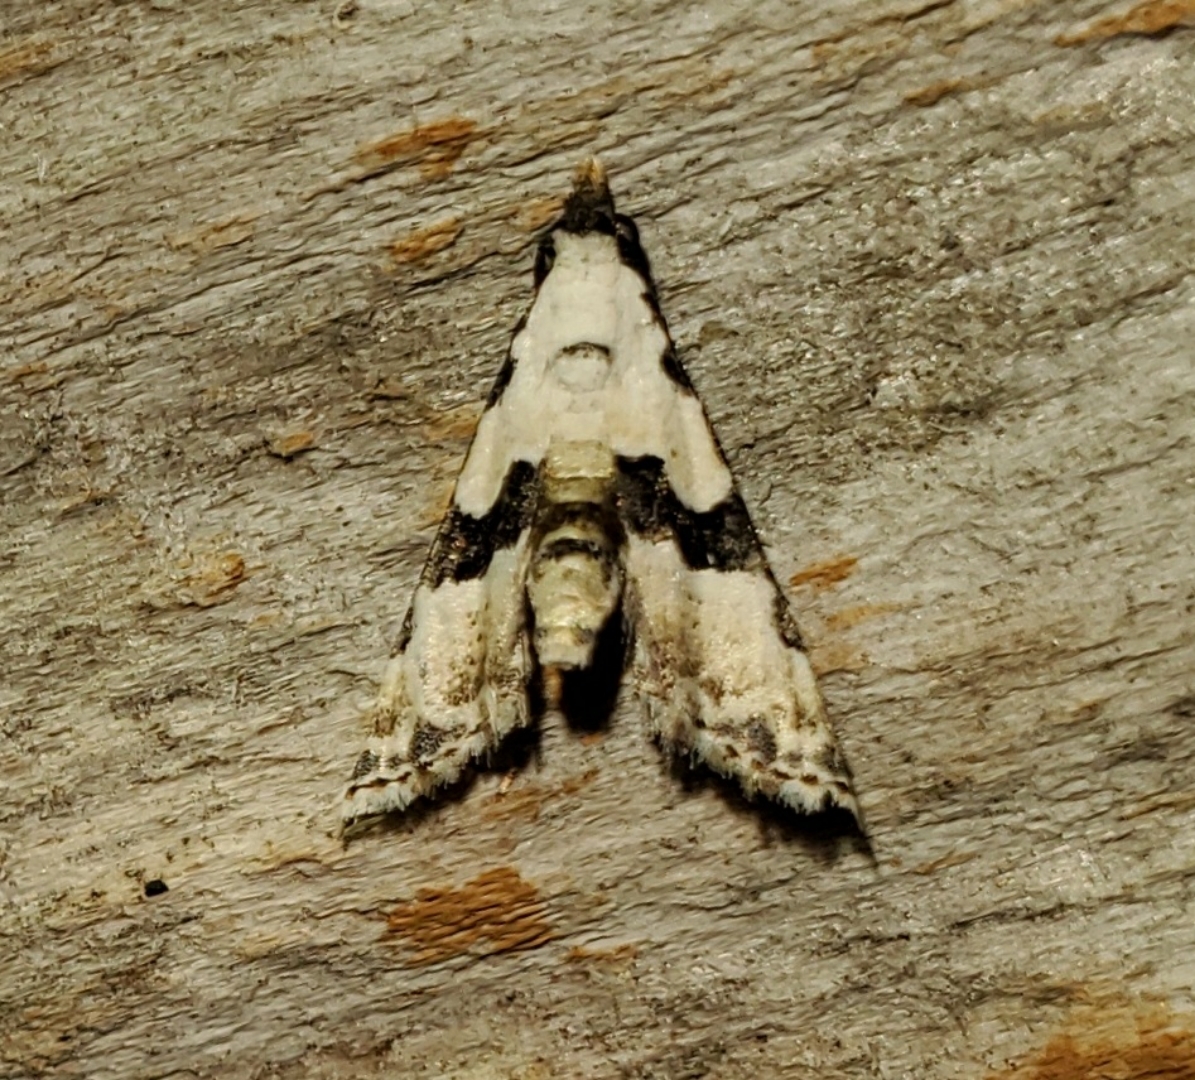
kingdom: Animalia
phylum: Arthropoda
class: Insecta
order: Lepidoptera
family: Noctuidae
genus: Nigetia
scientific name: Nigetia formosalis
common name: Thin-winged owlet
